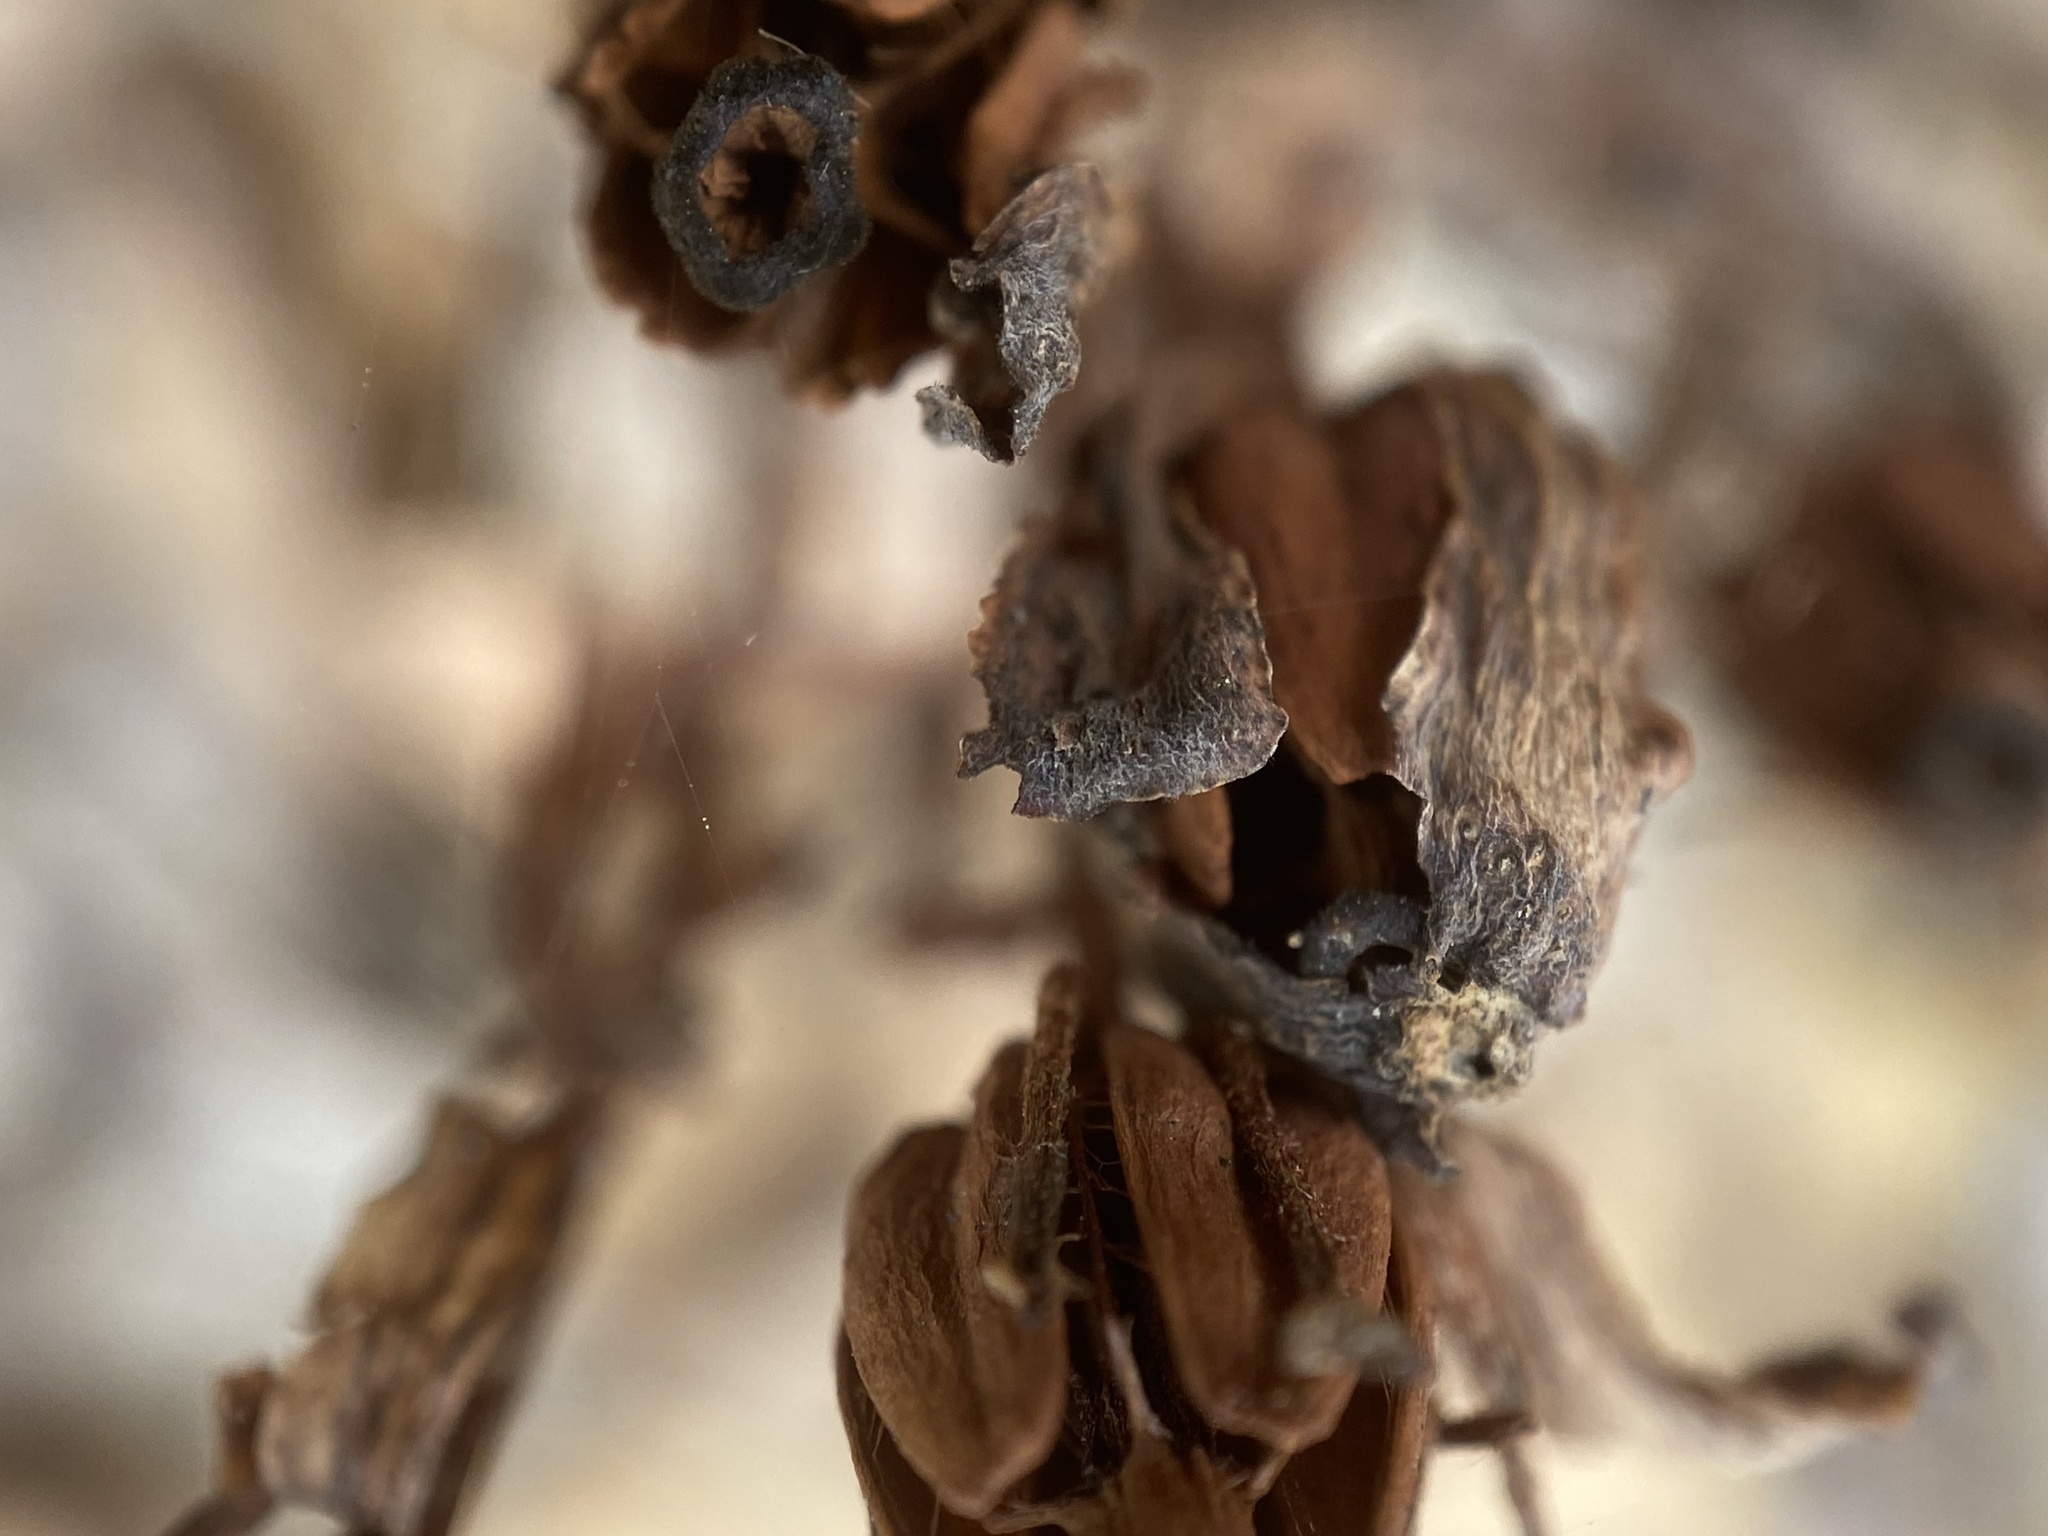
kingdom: Plantae
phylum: Tracheophyta
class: Magnoliopsida
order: Ericales
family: Ericaceae
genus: Monotropa
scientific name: Monotropa uniflora
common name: Convulsion root
